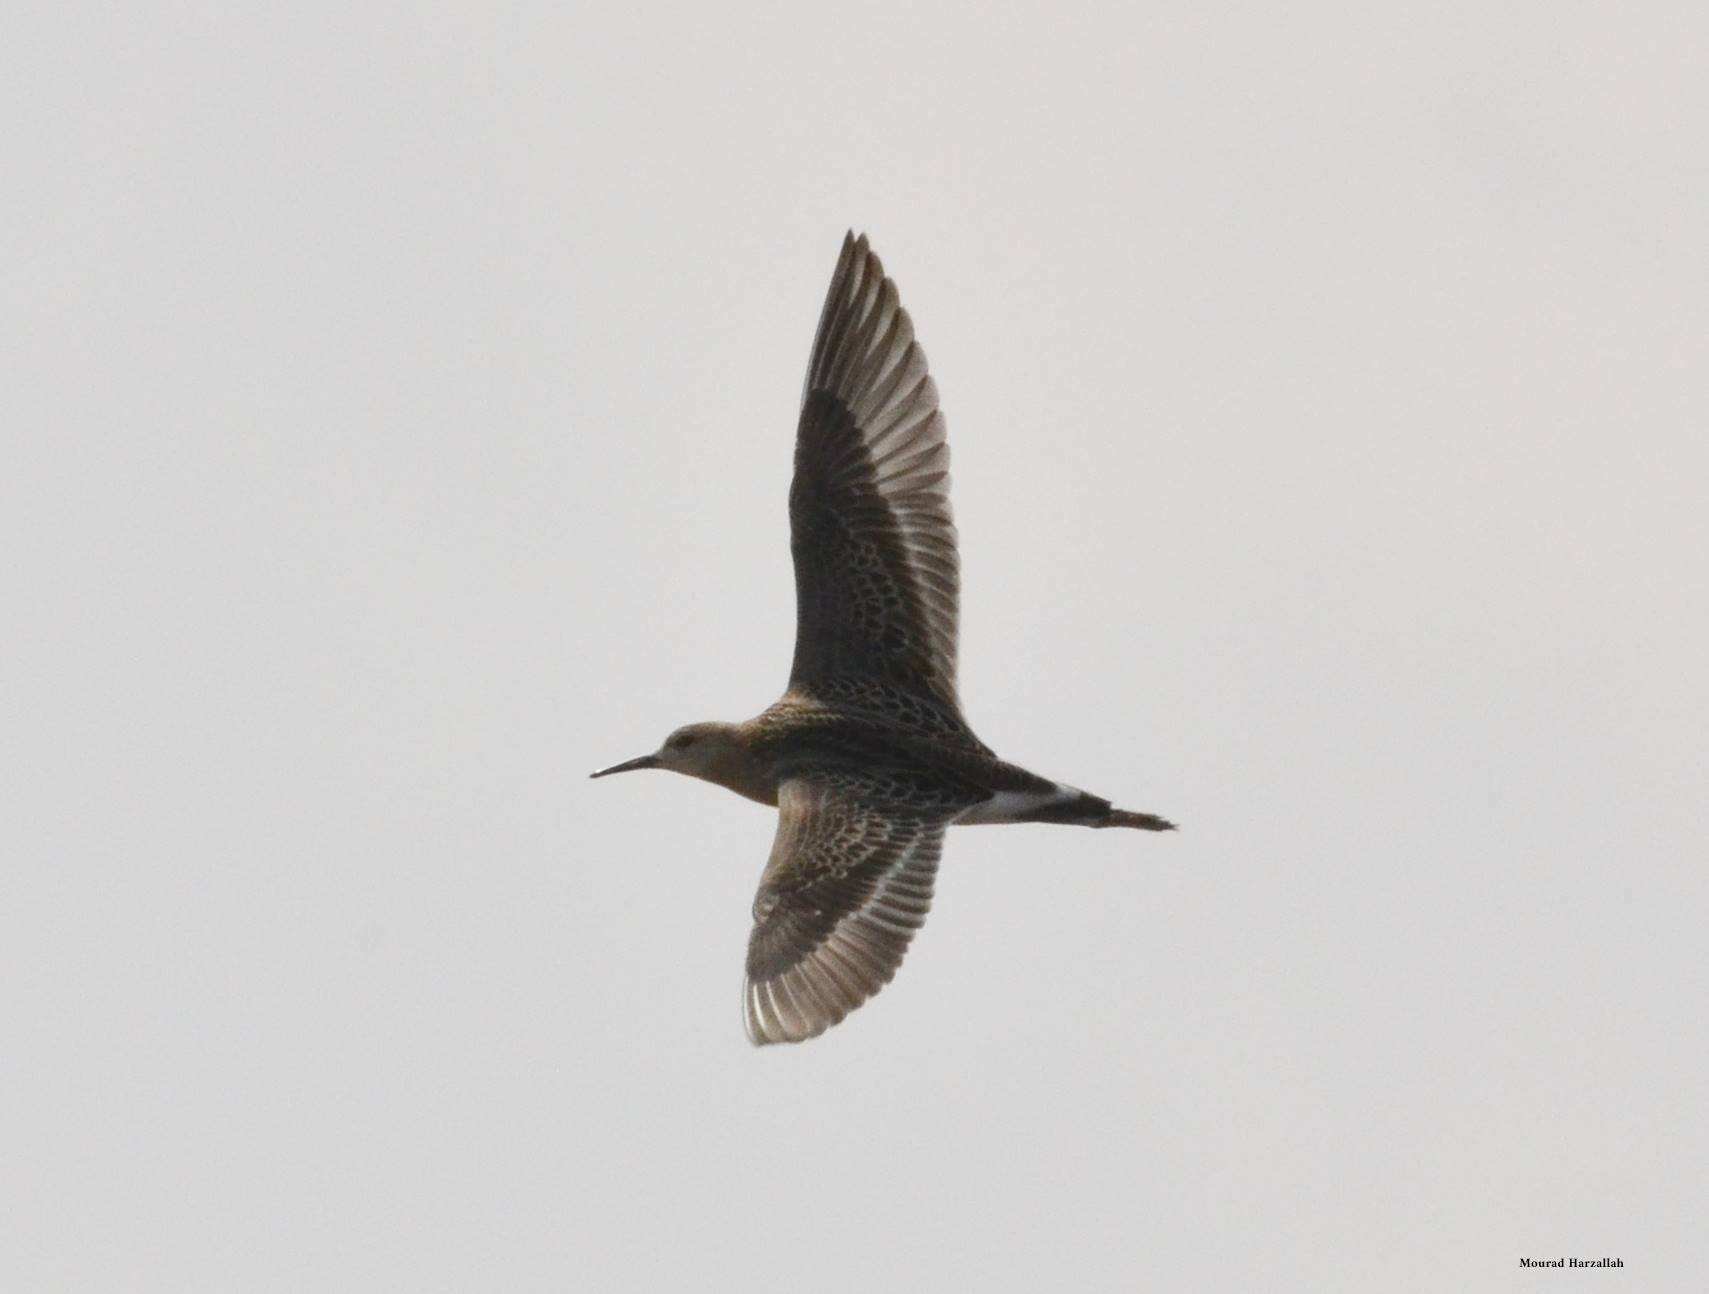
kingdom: Animalia
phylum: Chordata
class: Aves
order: Charadriiformes
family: Scolopacidae
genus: Calidris
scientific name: Calidris pugnax
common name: Ruff
